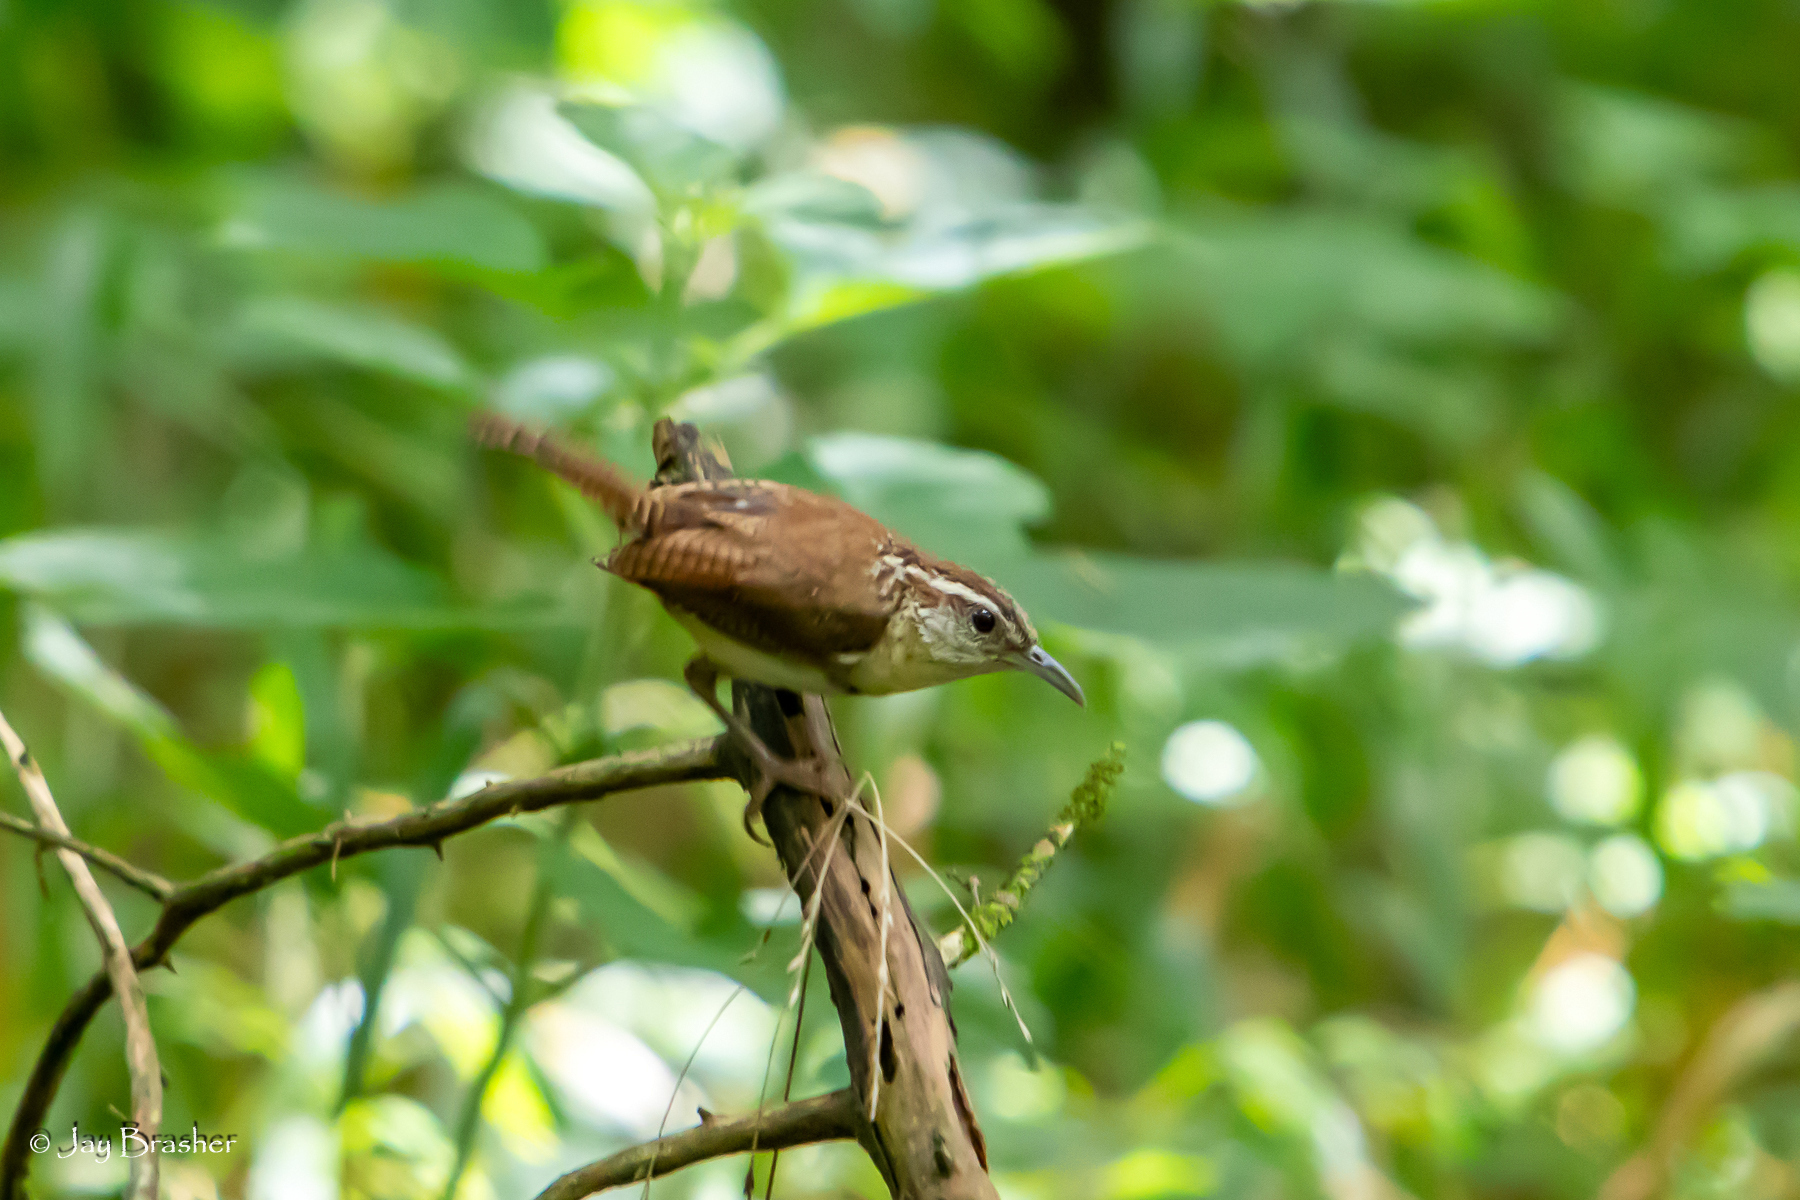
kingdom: Animalia
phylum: Chordata
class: Aves
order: Passeriformes
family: Troglodytidae
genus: Thryothorus
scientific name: Thryothorus ludovicianus
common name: Carolina wren
